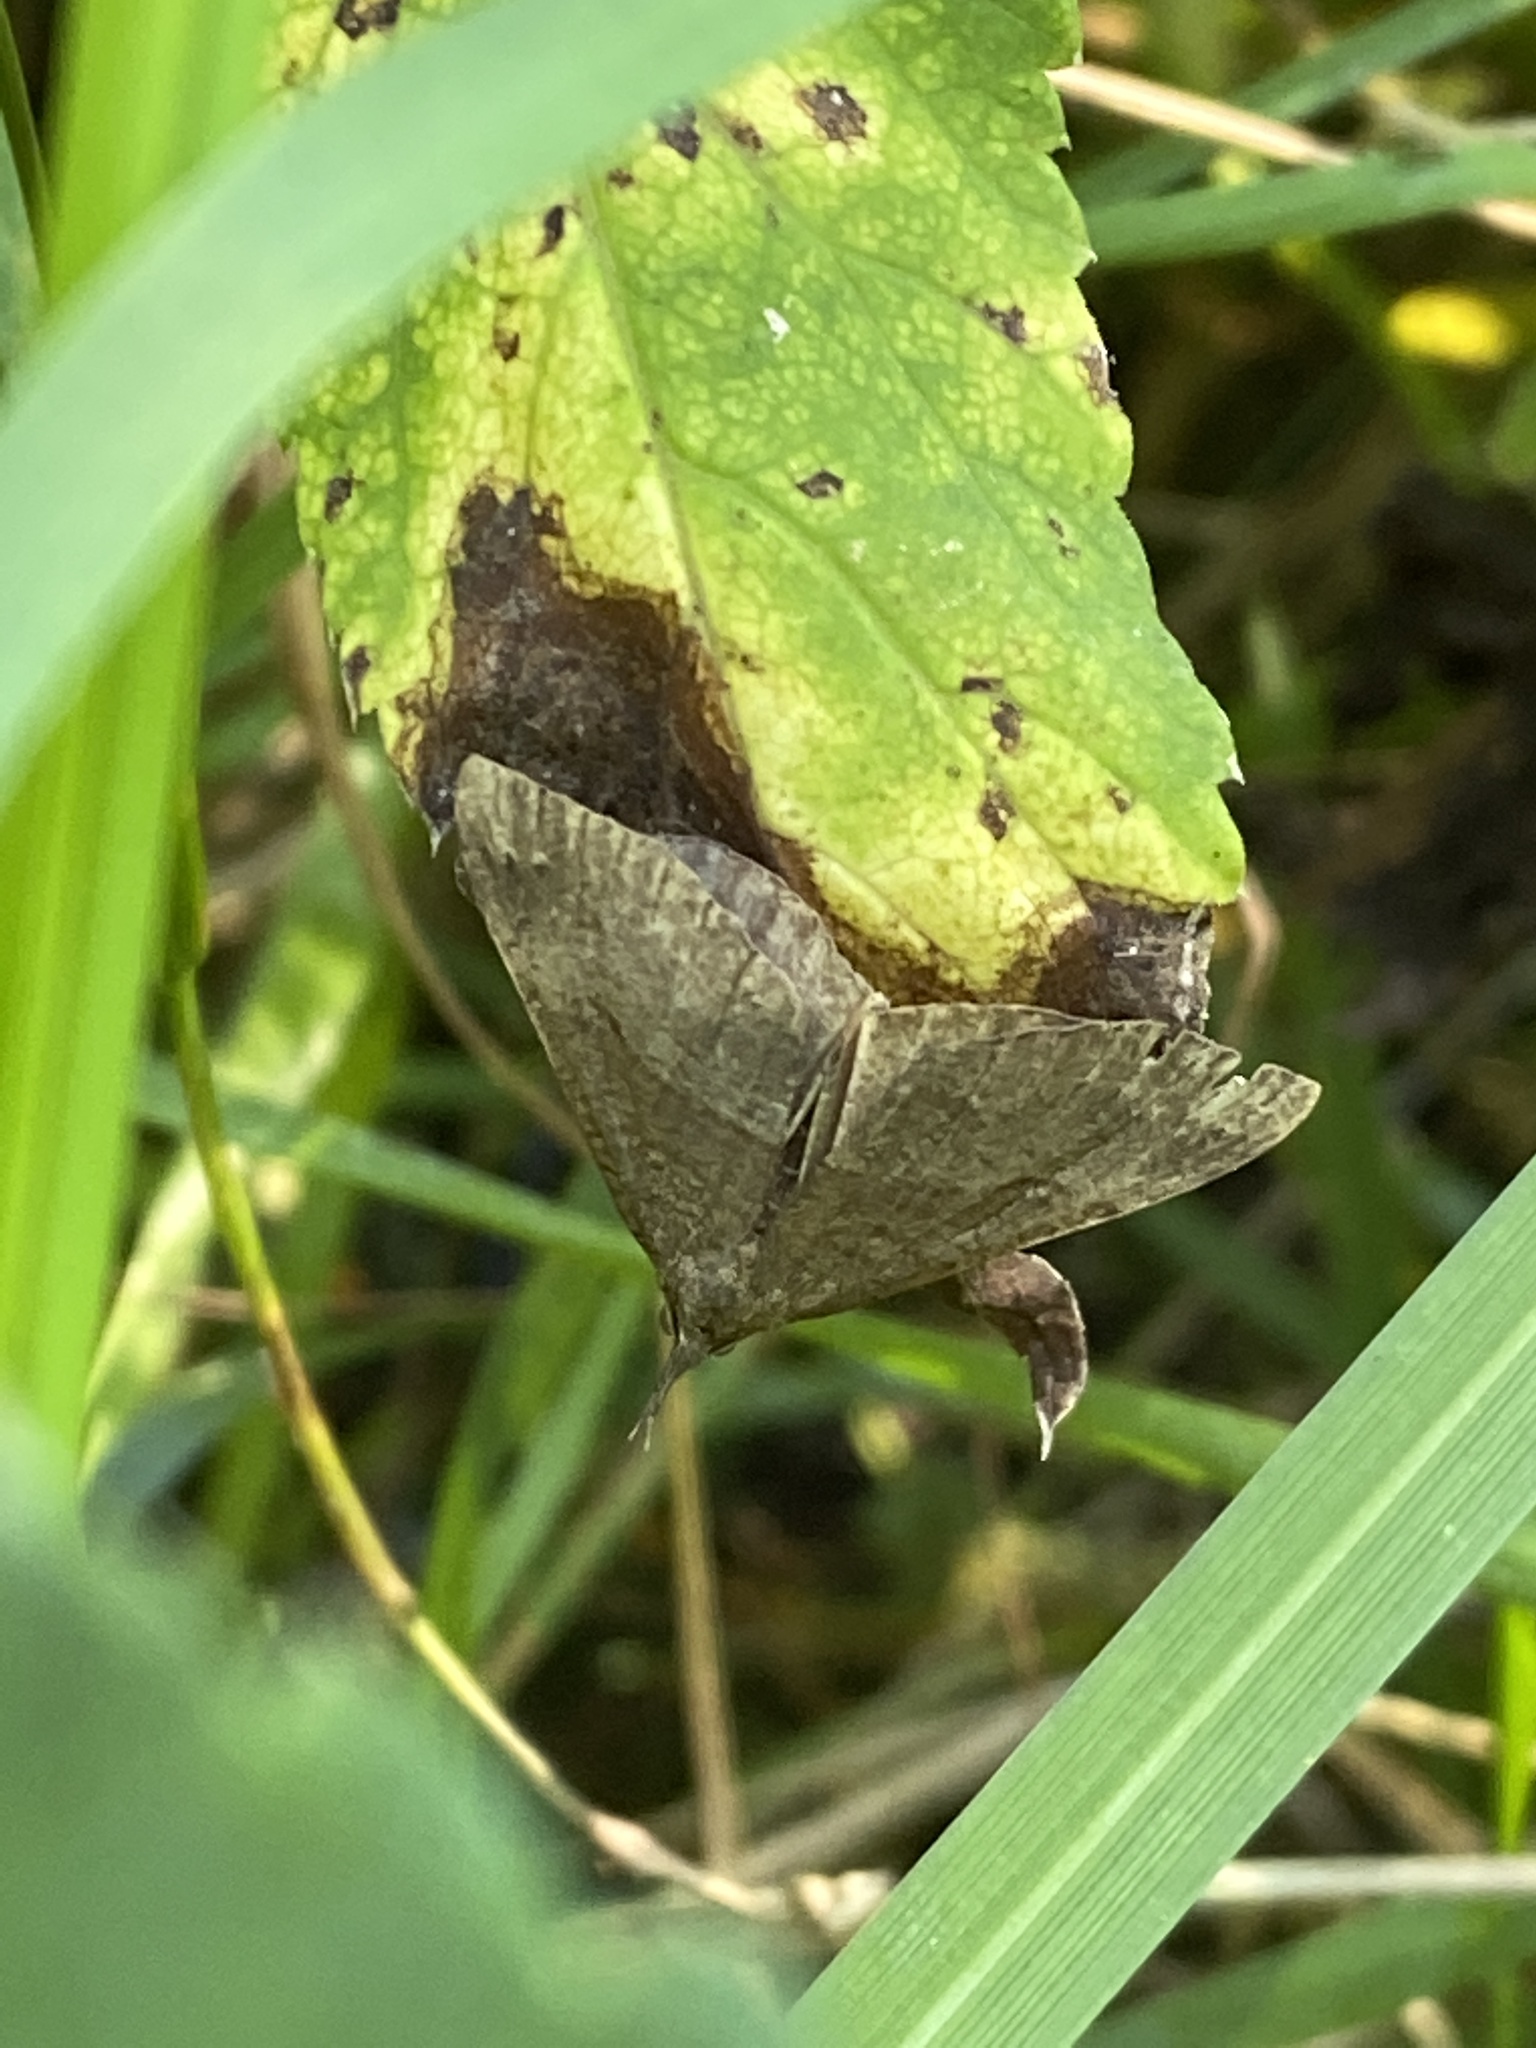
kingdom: Animalia
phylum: Arthropoda
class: Insecta
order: Lepidoptera
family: Erebidae
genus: Hypena
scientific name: Hypena proboscidalis
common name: Snout
